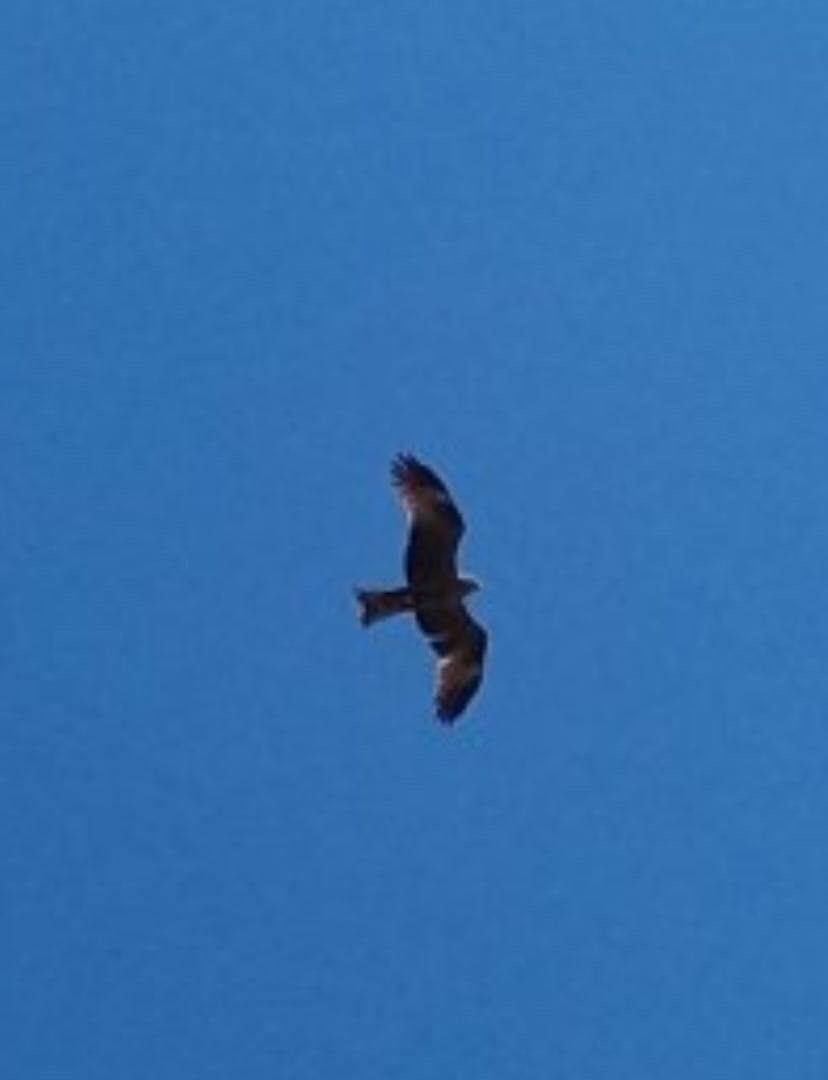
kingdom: Animalia
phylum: Chordata
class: Aves
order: Accipitriformes
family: Accipitridae
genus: Milvus
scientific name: Milvus migrans
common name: Black kite
